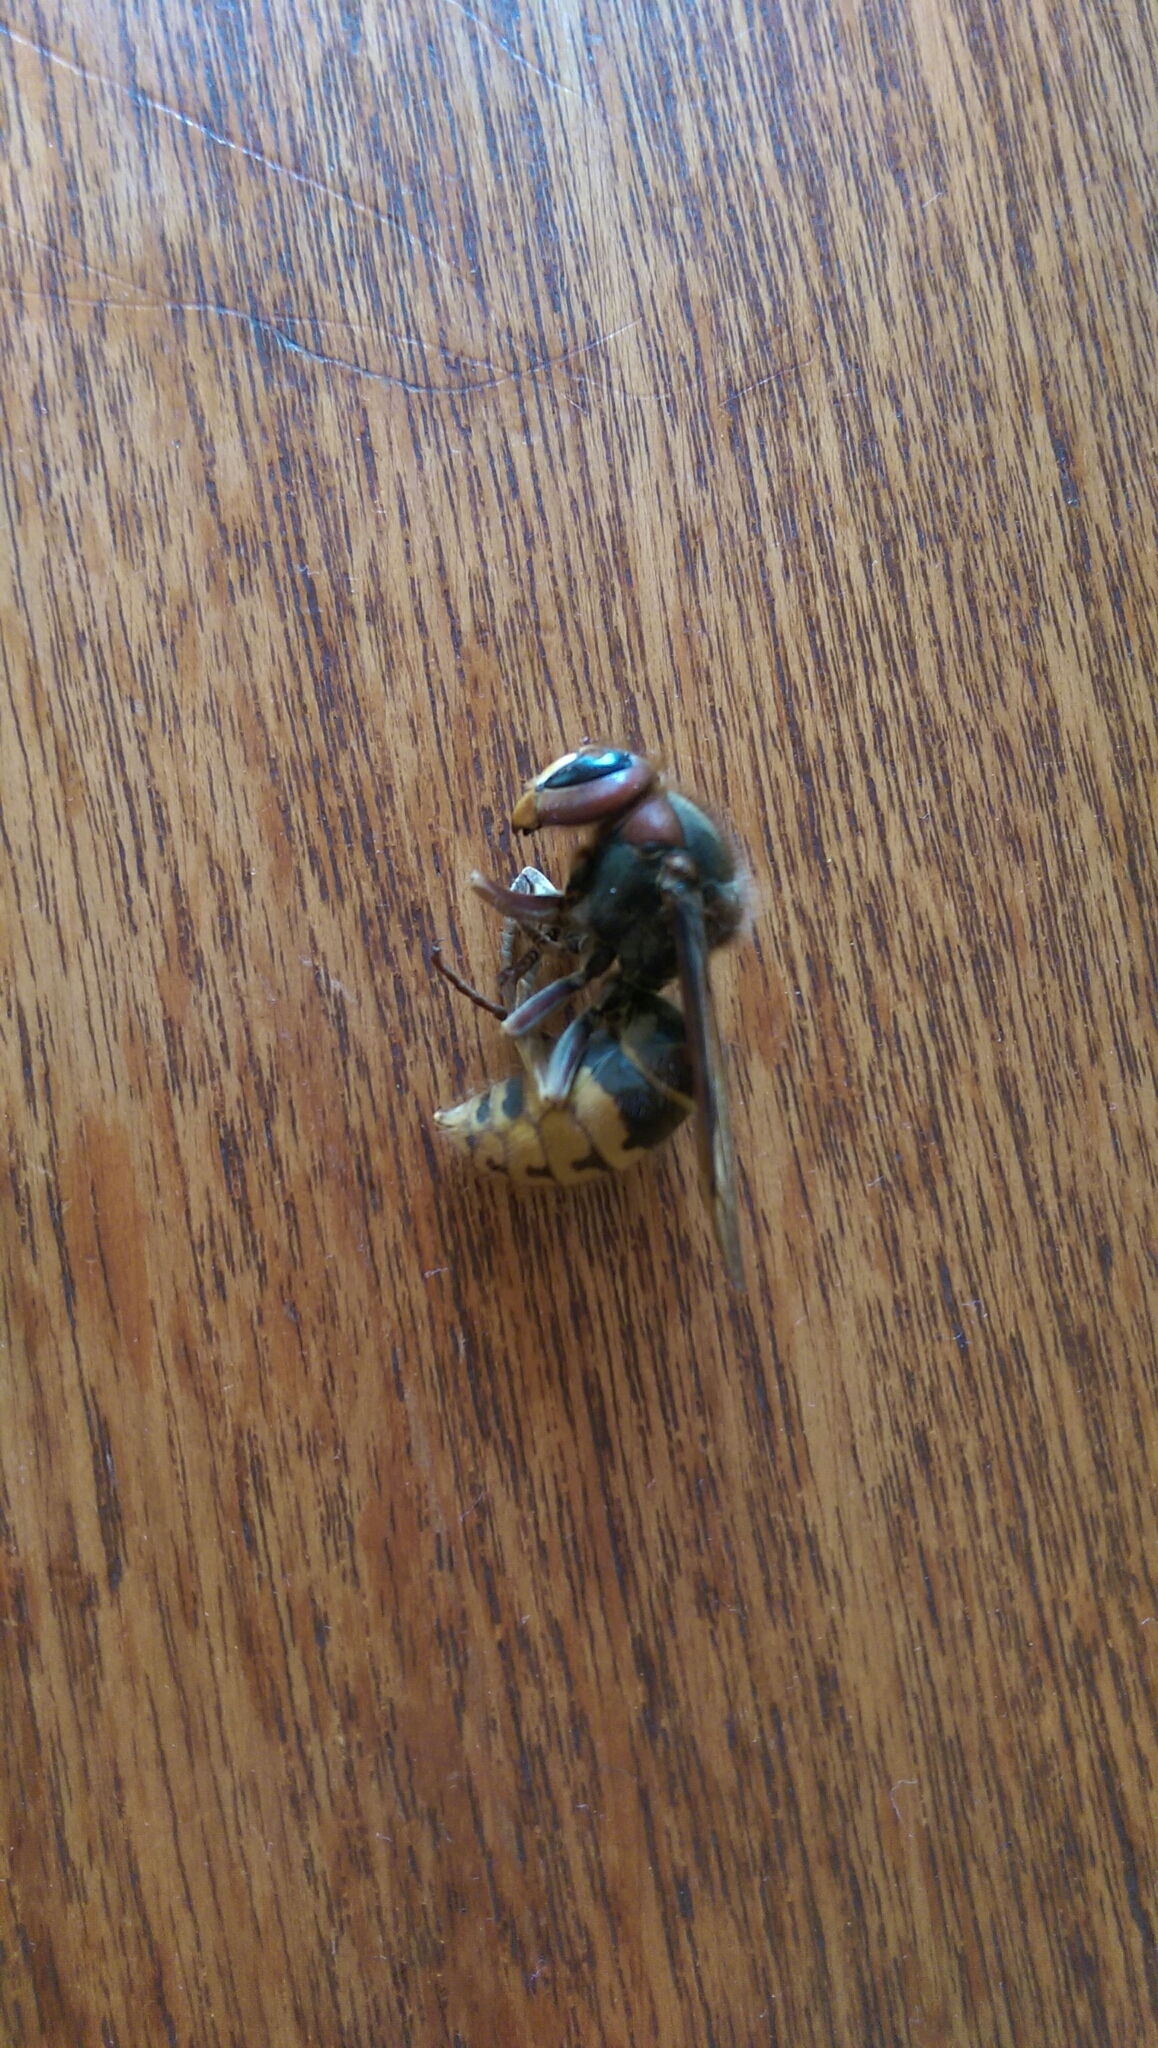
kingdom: Animalia
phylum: Arthropoda
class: Insecta
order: Hymenoptera
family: Vespidae
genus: Vespa
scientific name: Vespa crabro
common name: Hornet
